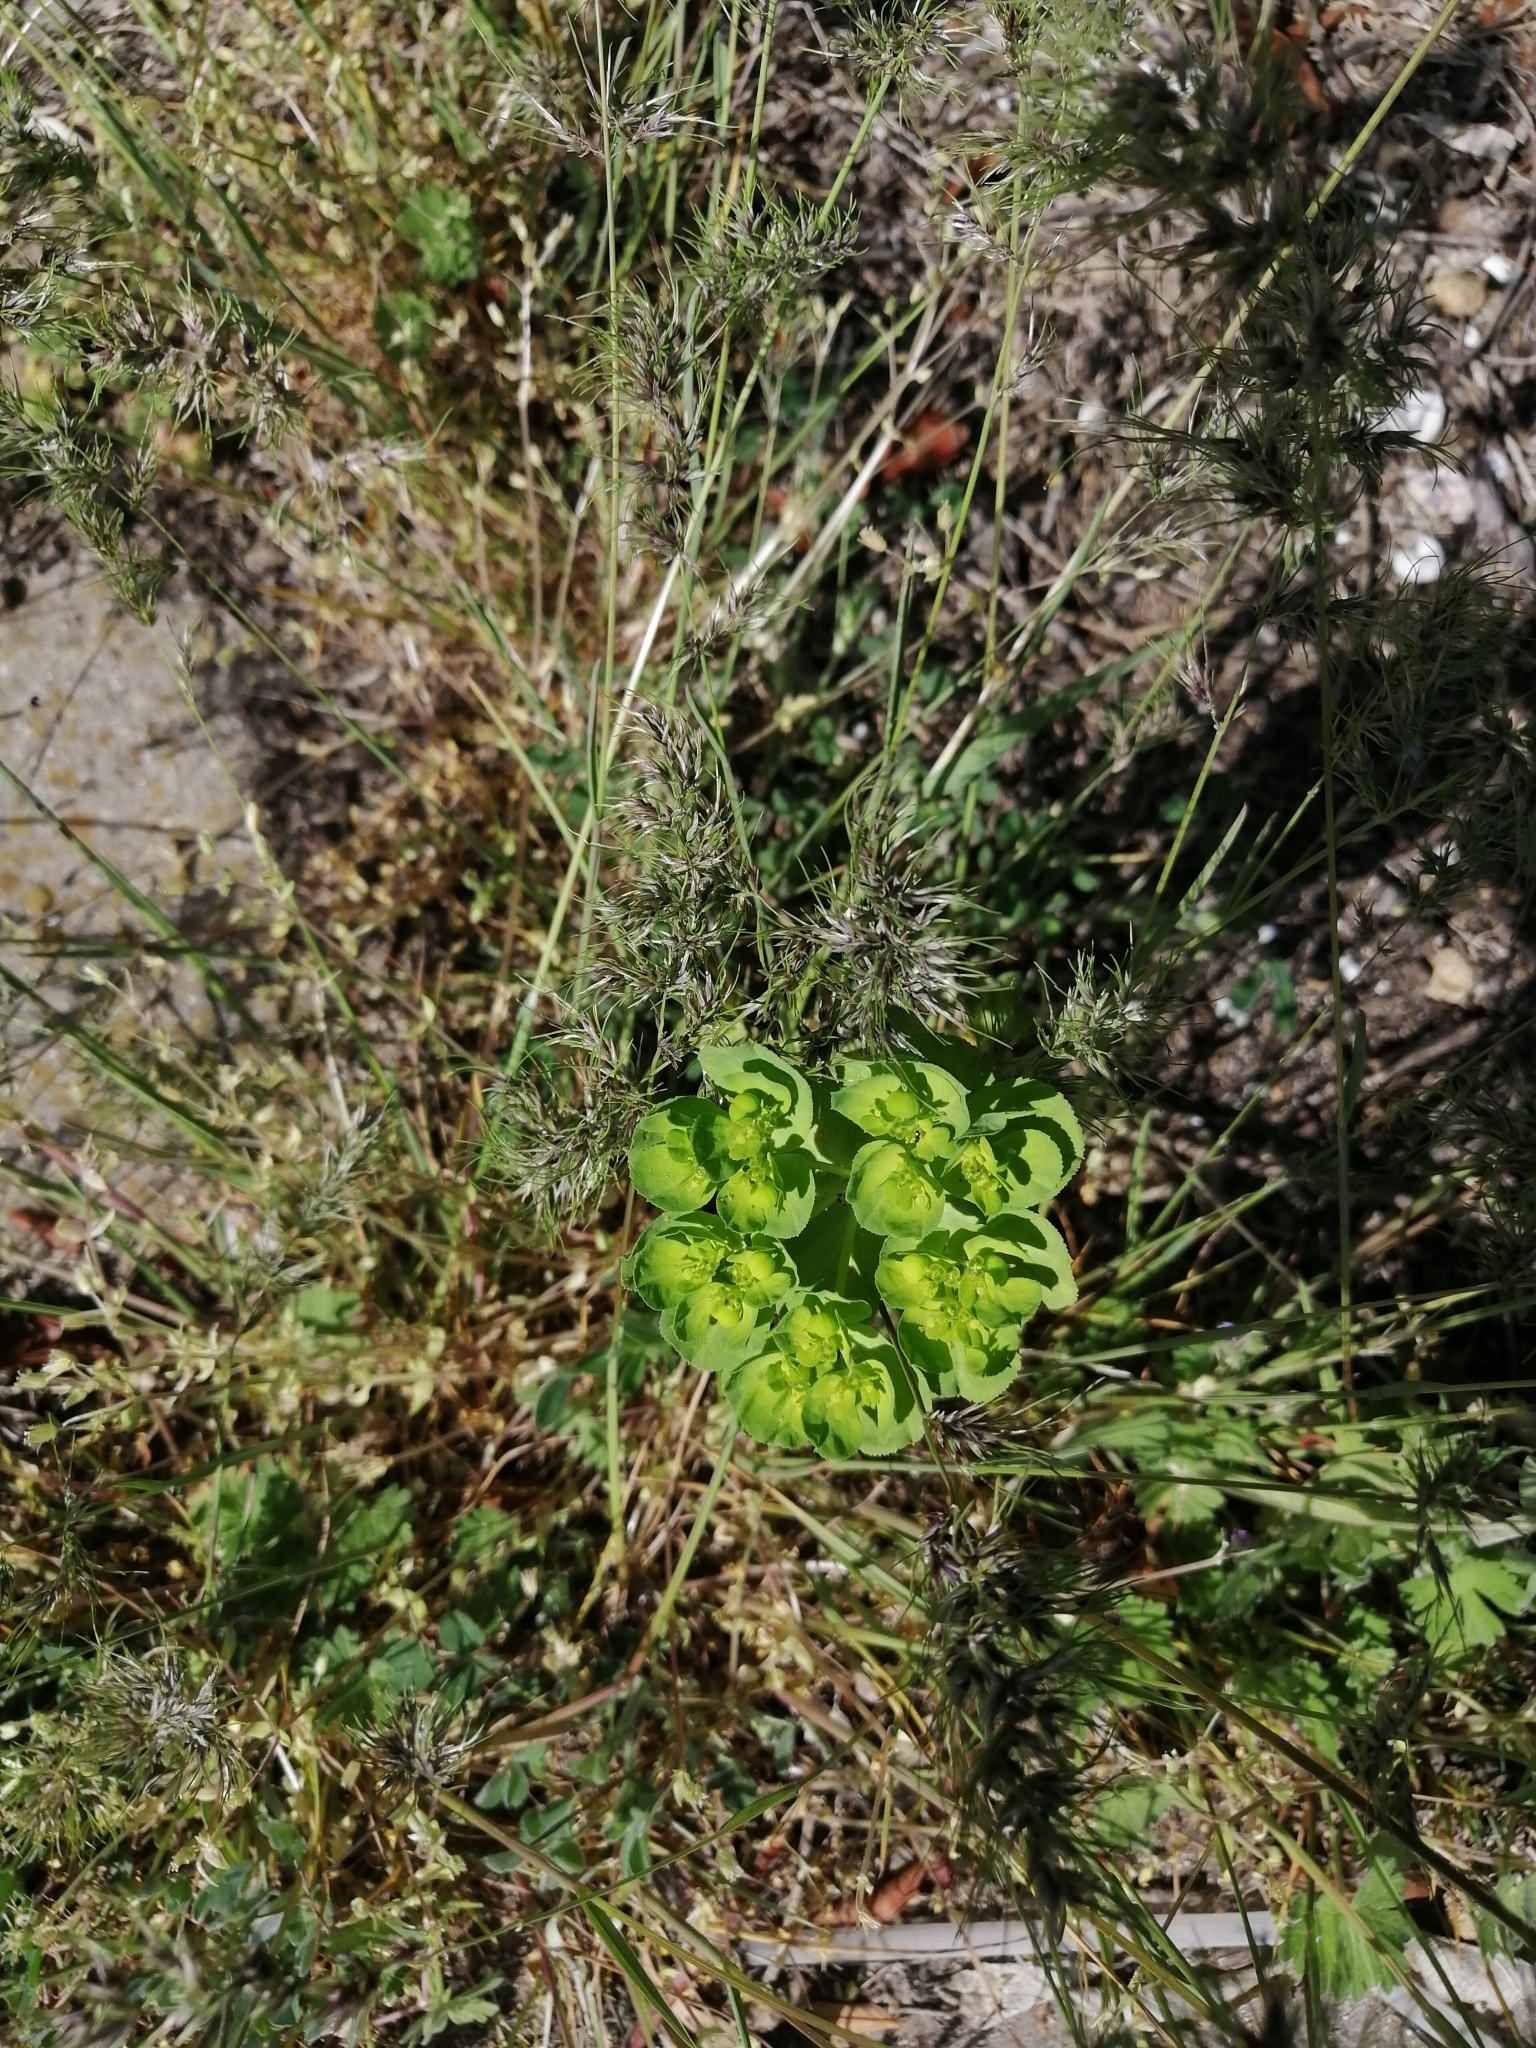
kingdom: Plantae
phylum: Tracheophyta
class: Magnoliopsida
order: Malpighiales
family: Euphorbiaceae
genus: Euphorbia
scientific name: Euphorbia helioscopia
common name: Sun spurge
